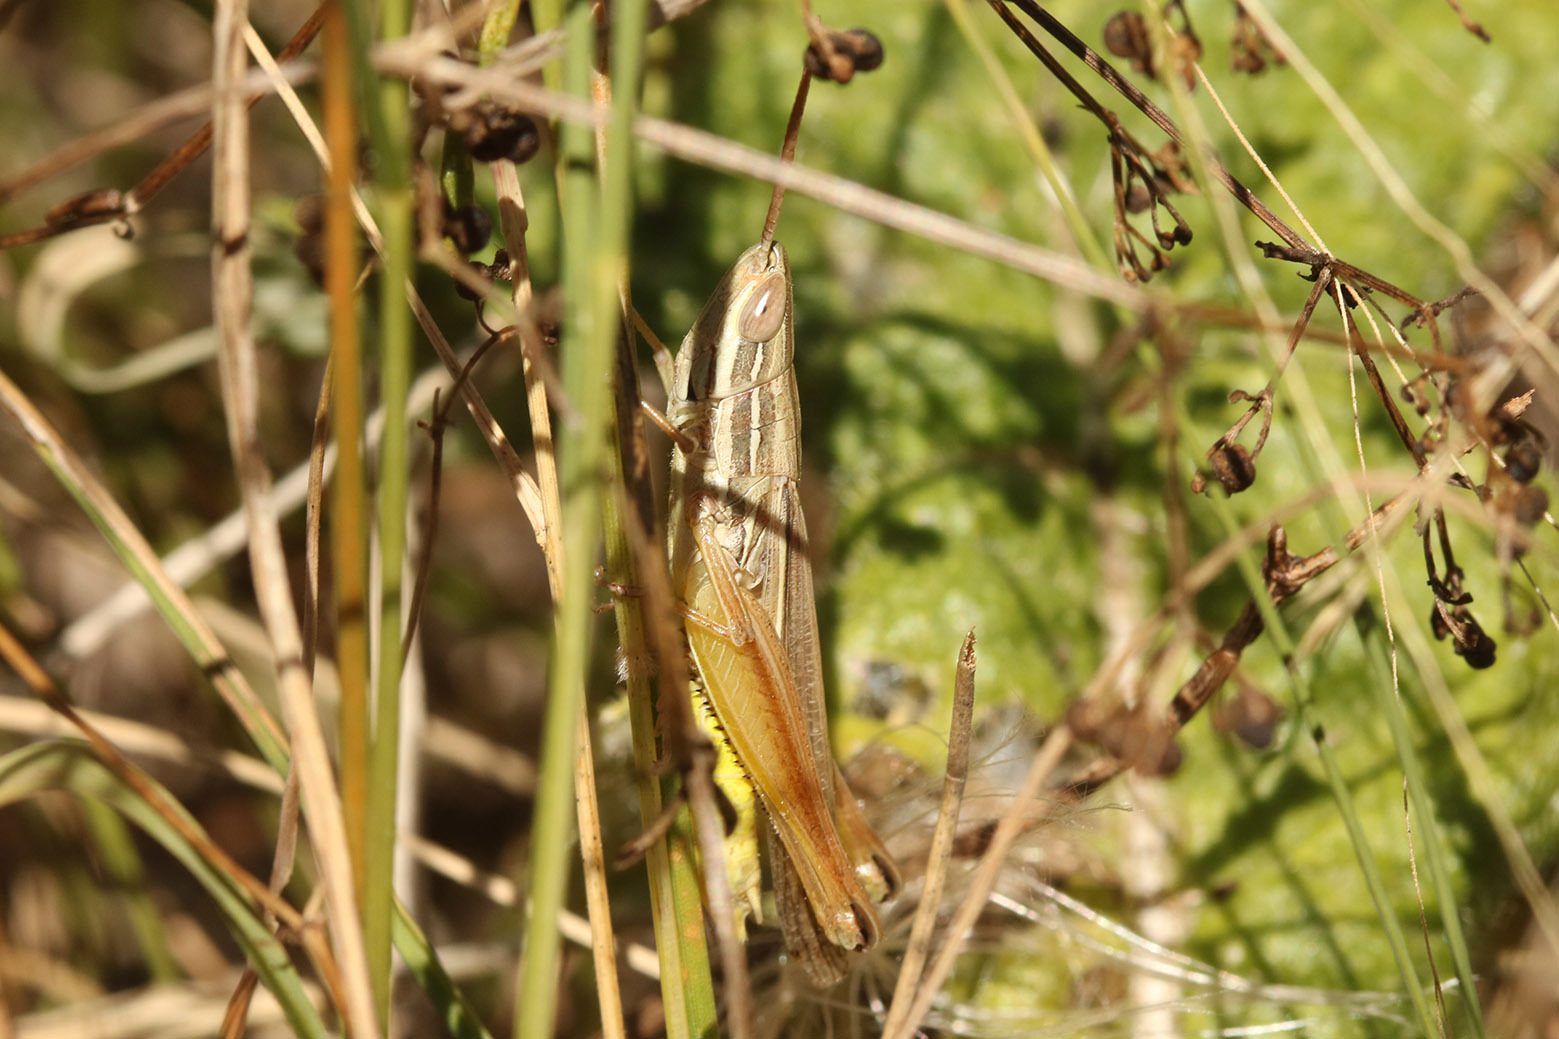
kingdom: Animalia
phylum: Arthropoda
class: Insecta
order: Orthoptera
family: Acrididae
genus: Sinipta
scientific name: Sinipta dalmani
